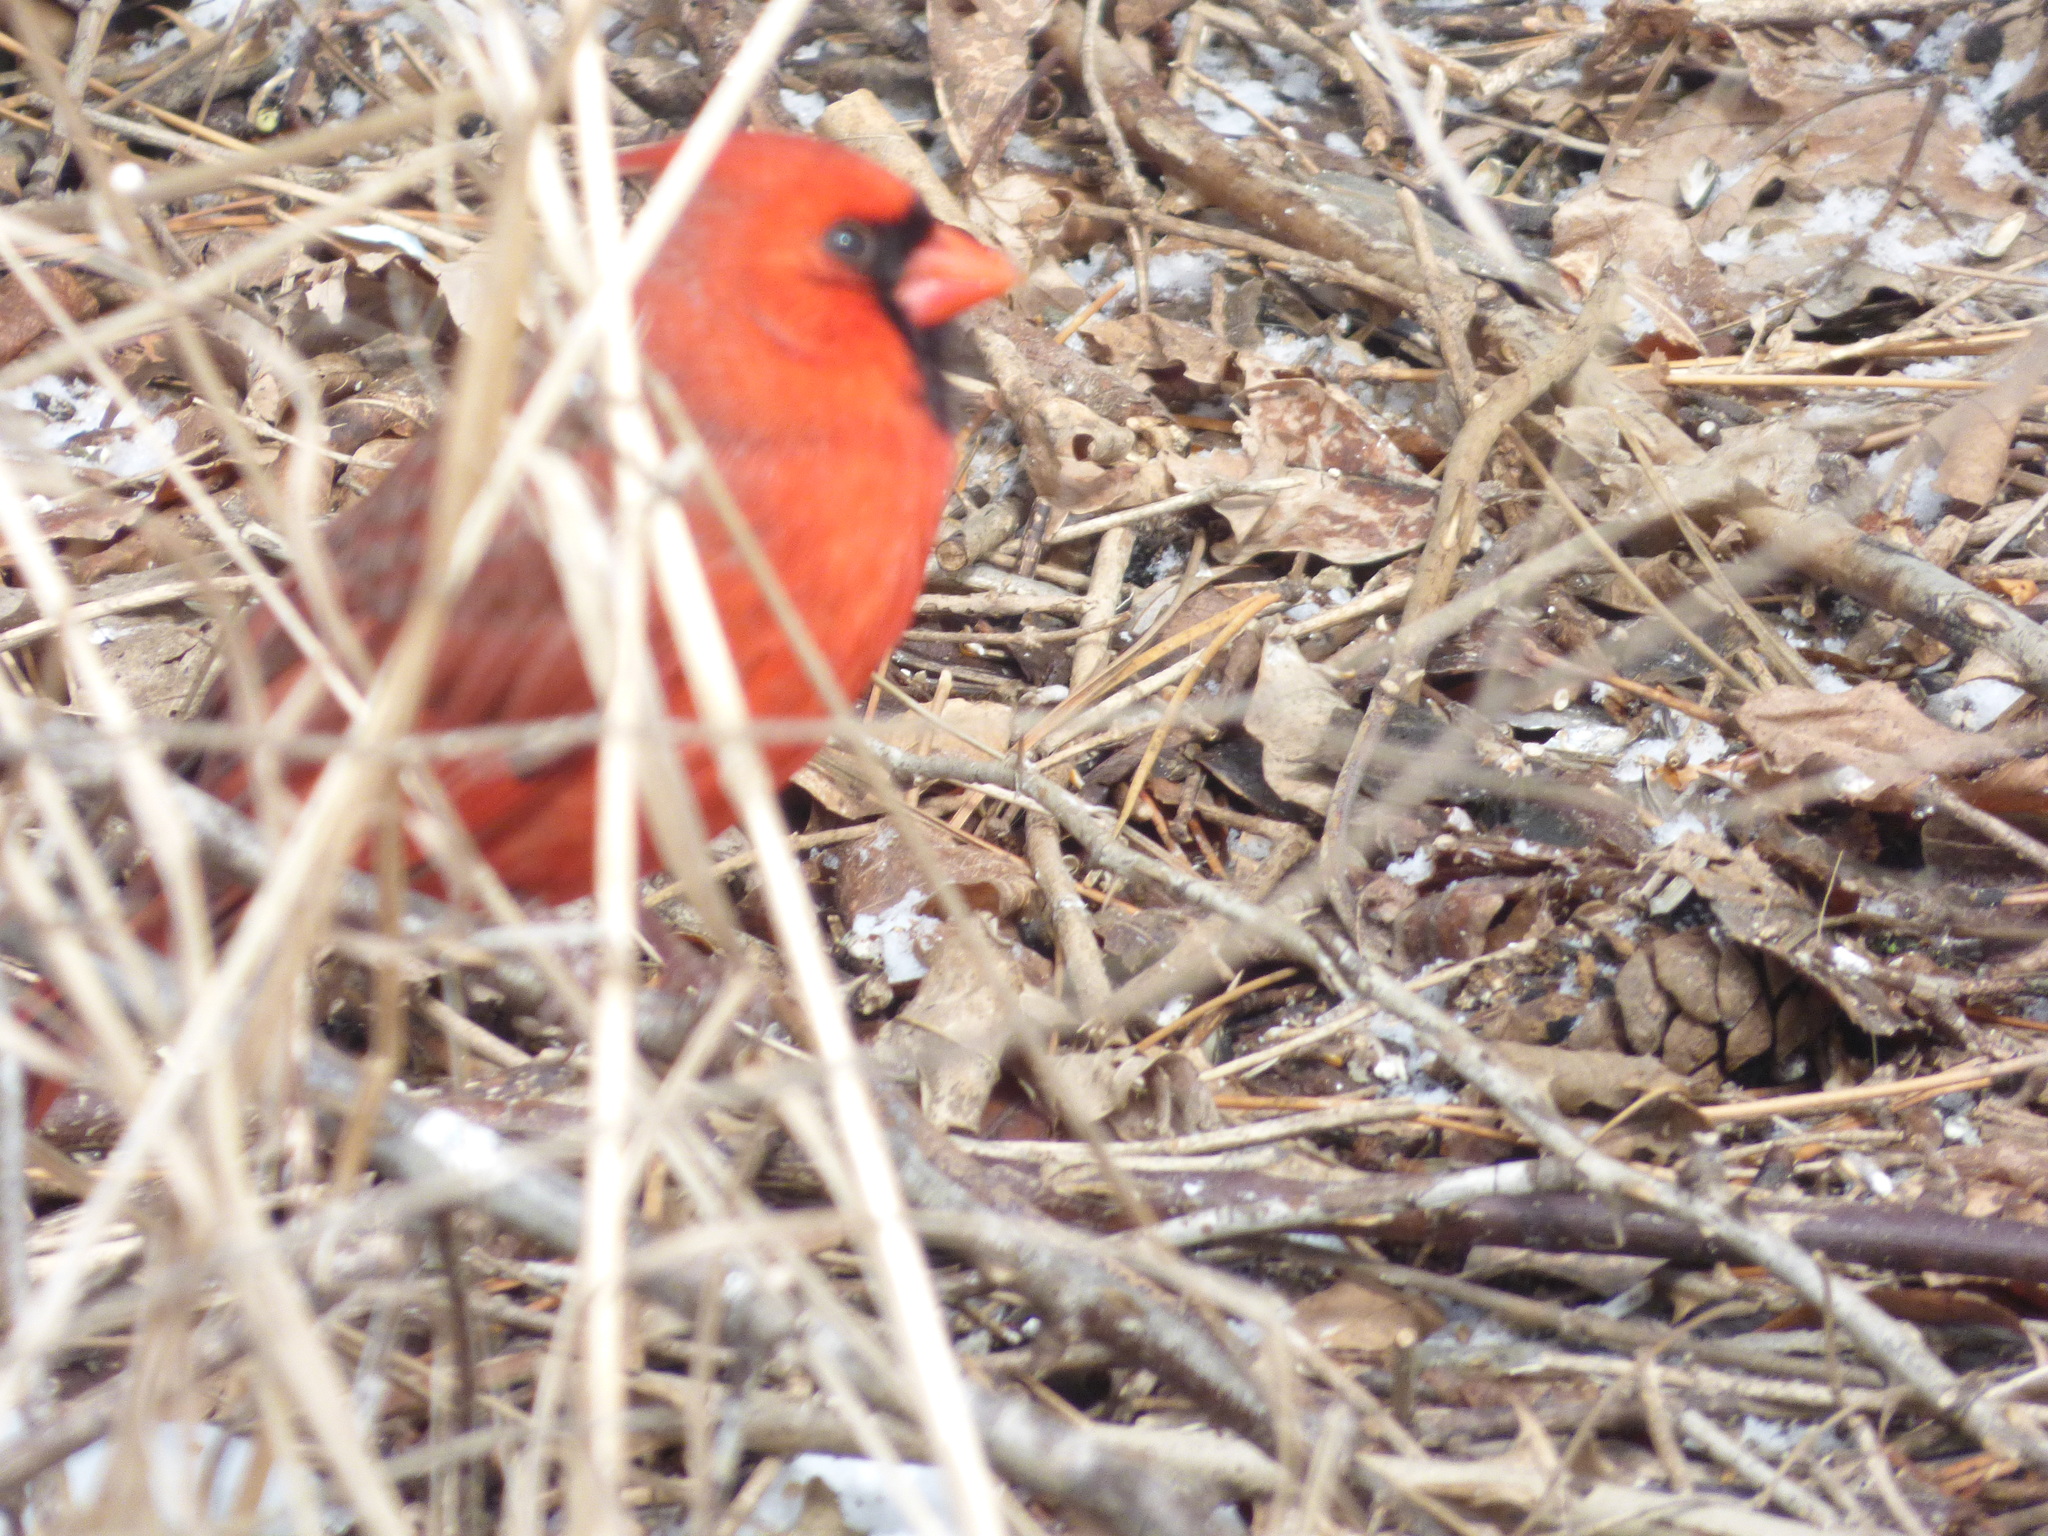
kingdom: Animalia
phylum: Chordata
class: Aves
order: Passeriformes
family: Cardinalidae
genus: Cardinalis
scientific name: Cardinalis cardinalis
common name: Northern cardinal
